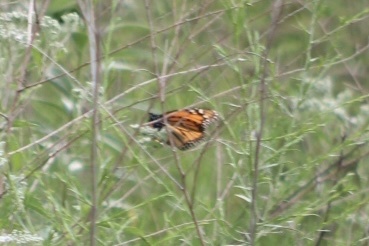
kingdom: Animalia
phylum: Arthropoda
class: Insecta
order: Lepidoptera
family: Nymphalidae
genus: Danaus
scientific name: Danaus plexippus
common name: Monarch
